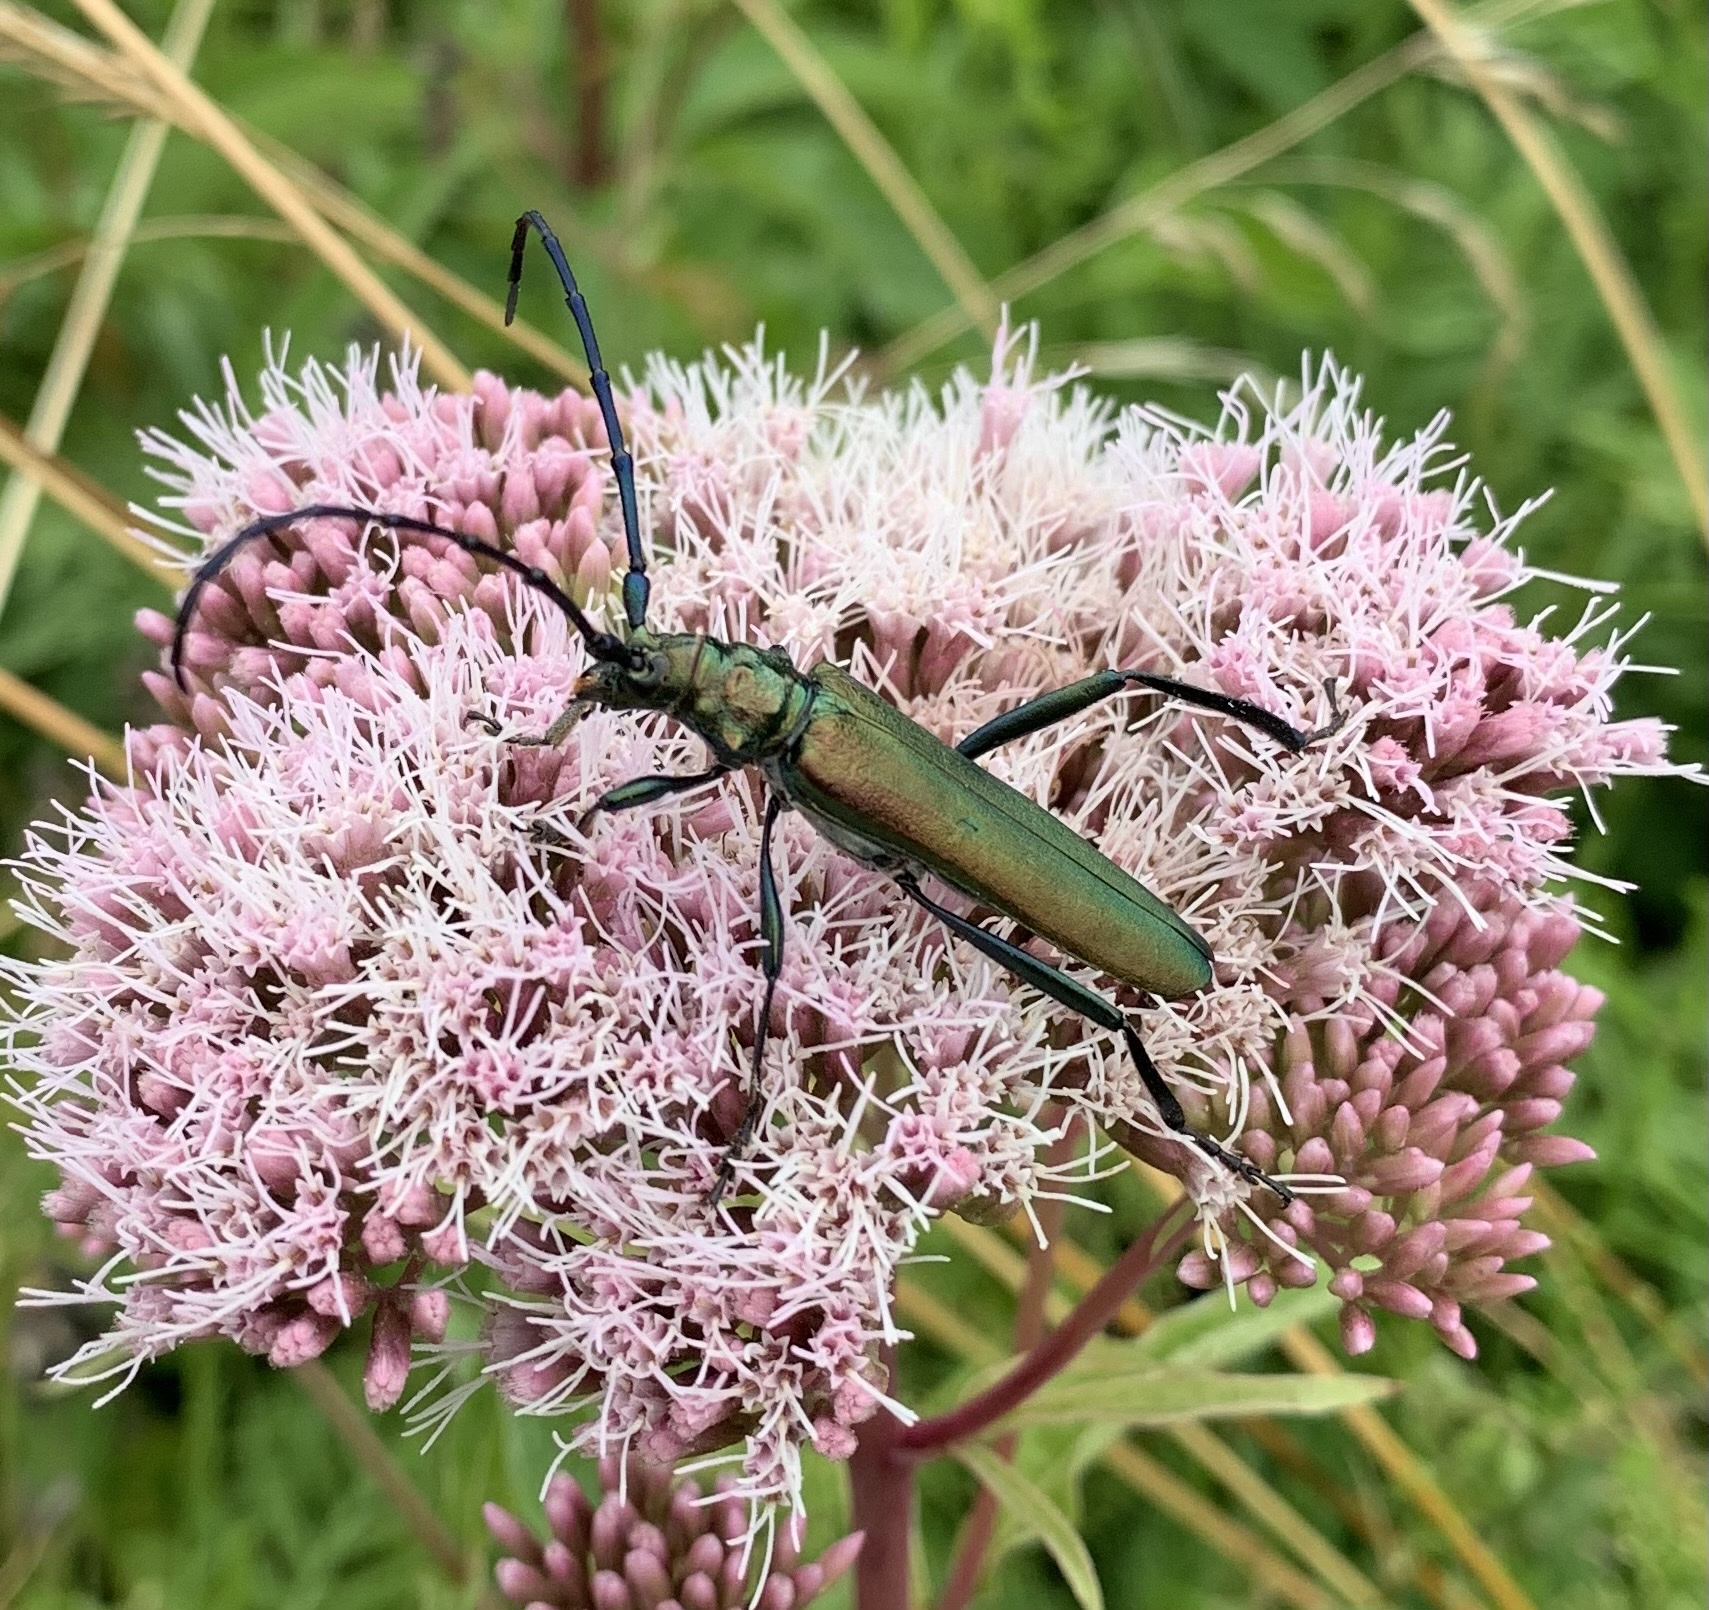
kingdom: Animalia
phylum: Arthropoda
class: Insecta
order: Coleoptera
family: Cerambycidae
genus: Aromia
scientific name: Aromia moschata
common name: Musk beetle
